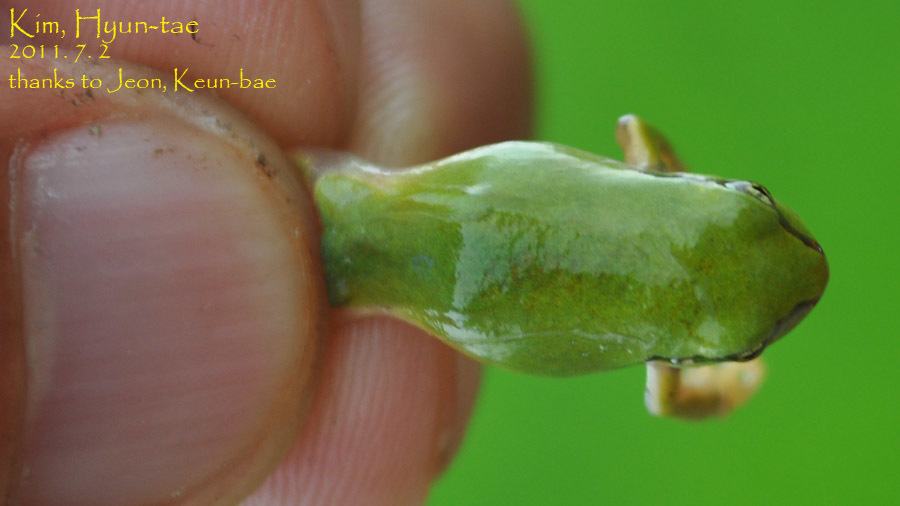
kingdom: Animalia
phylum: Chordata
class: Amphibia
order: Anura
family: Hylidae
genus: Dryophytes
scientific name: Dryophytes japonicus
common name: Japanese treefrog
